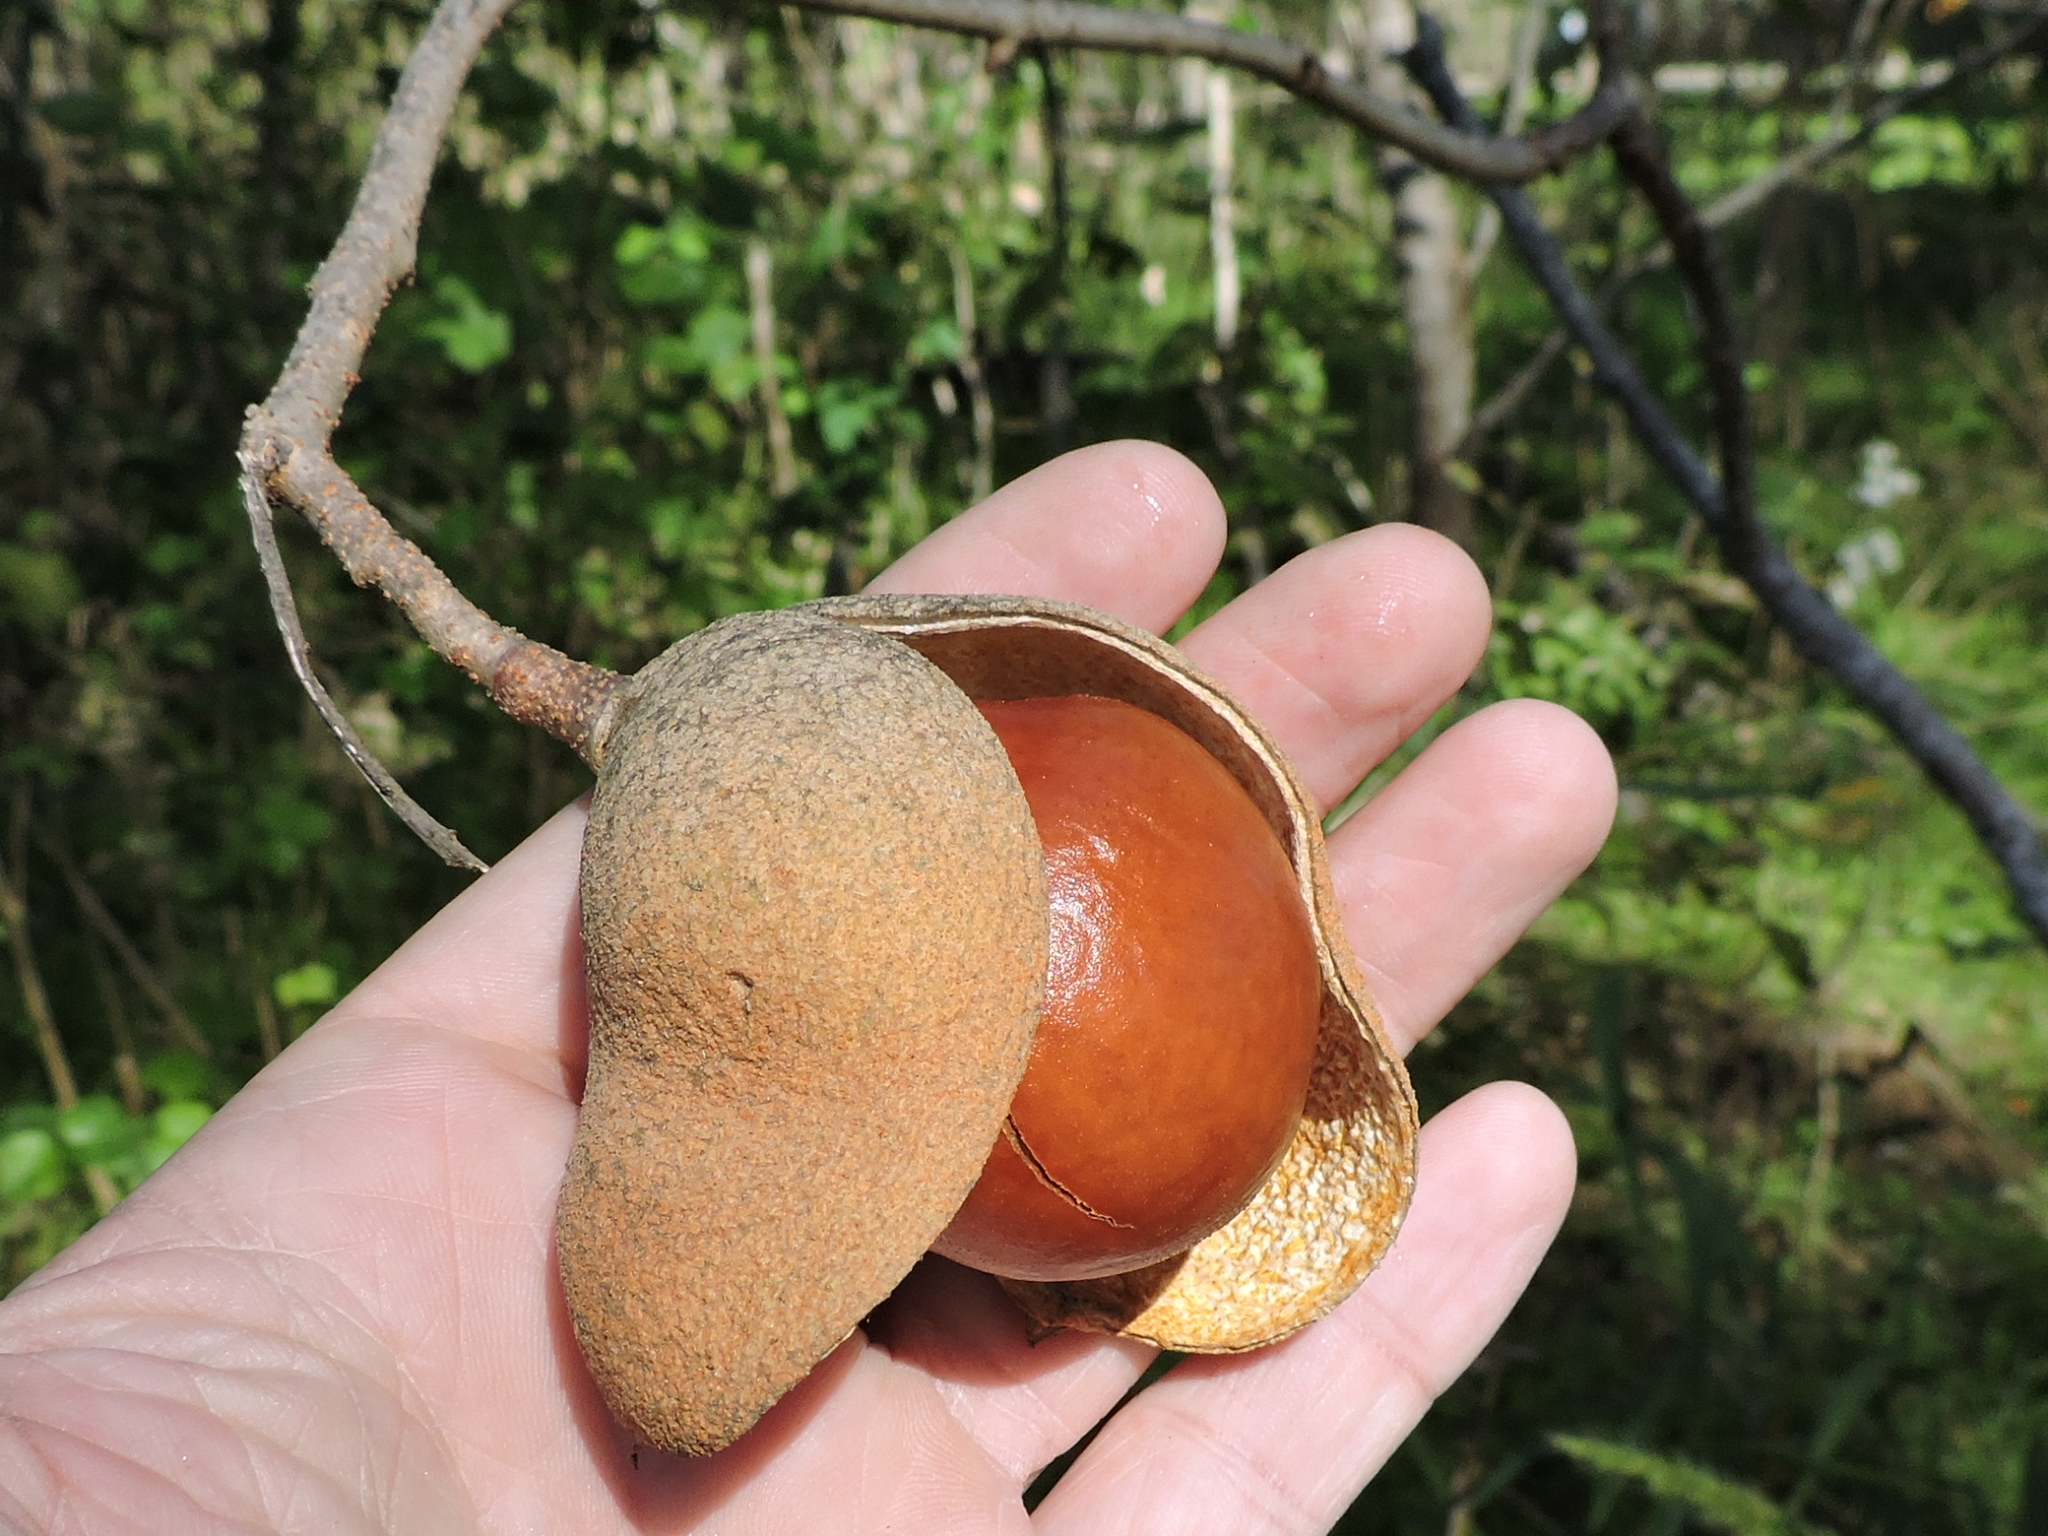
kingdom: Plantae
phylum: Tracheophyta
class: Magnoliopsida
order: Sapindales
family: Sapindaceae
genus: Aesculus
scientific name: Aesculus pavia
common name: Red buckeye
